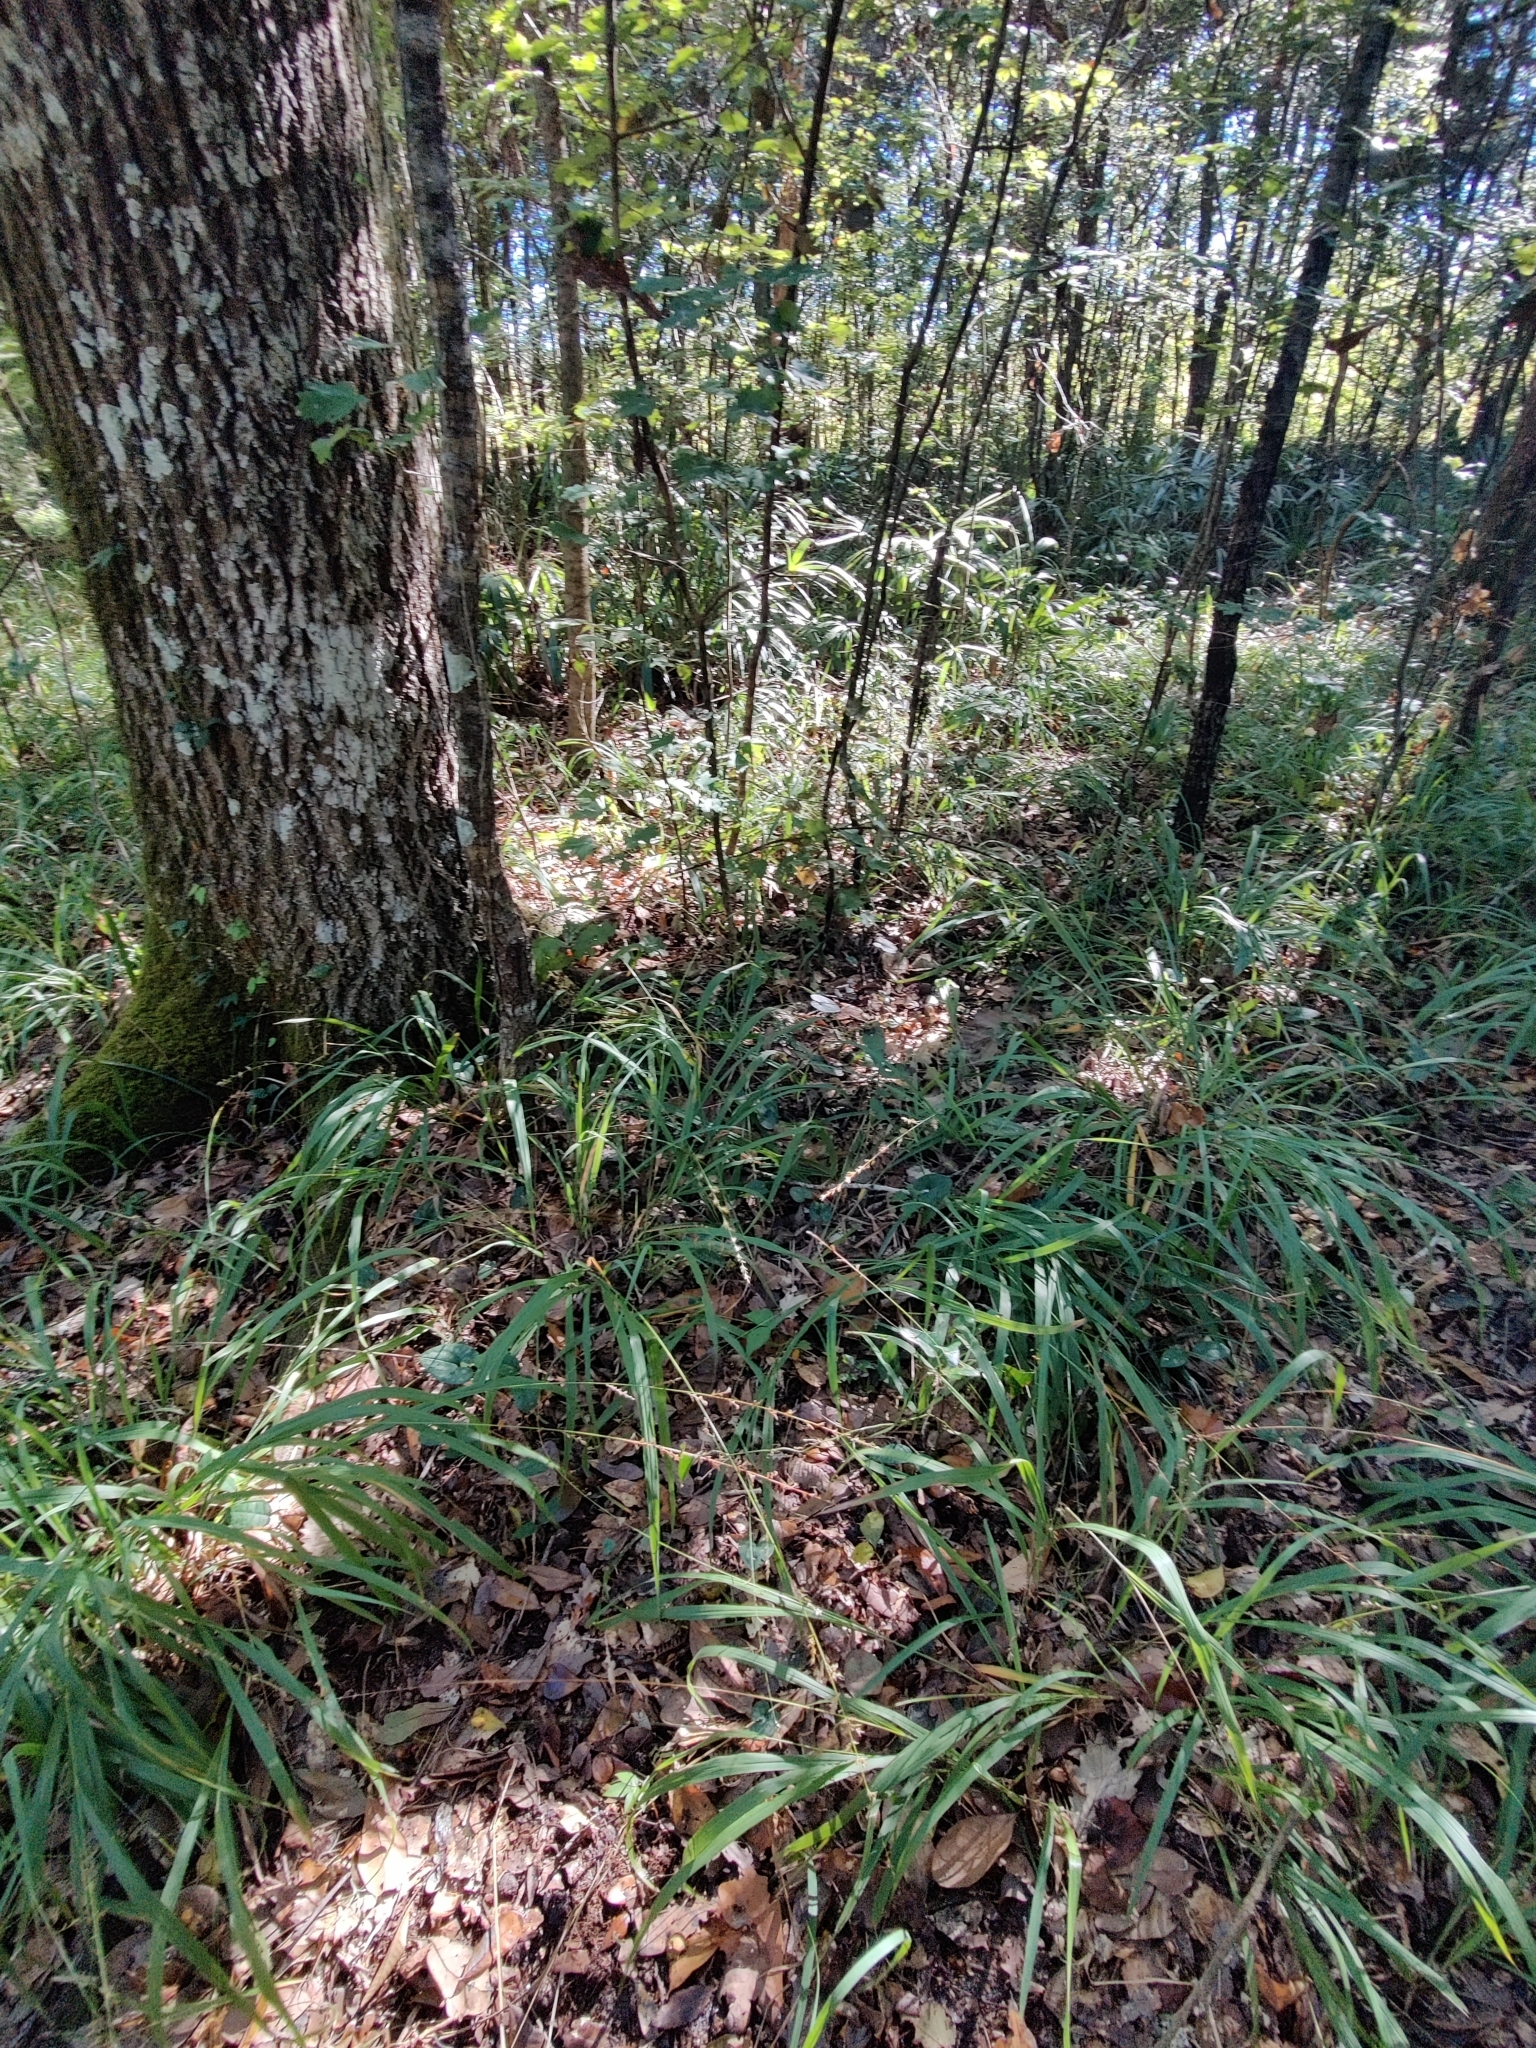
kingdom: Plantae
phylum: Tracheophyta
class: Magnoliopsida
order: Piperales
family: Aristolochiaceae
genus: Hexastylis
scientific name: Hexastylis arifolia
